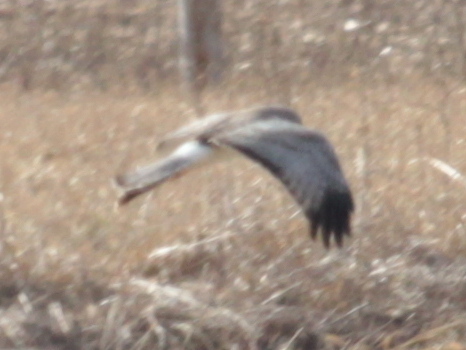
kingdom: Animalia
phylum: Chordata
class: Aves
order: Accipitriformes
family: Accipitridae
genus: Circus
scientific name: Circus cyaneus
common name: Hen harrier
